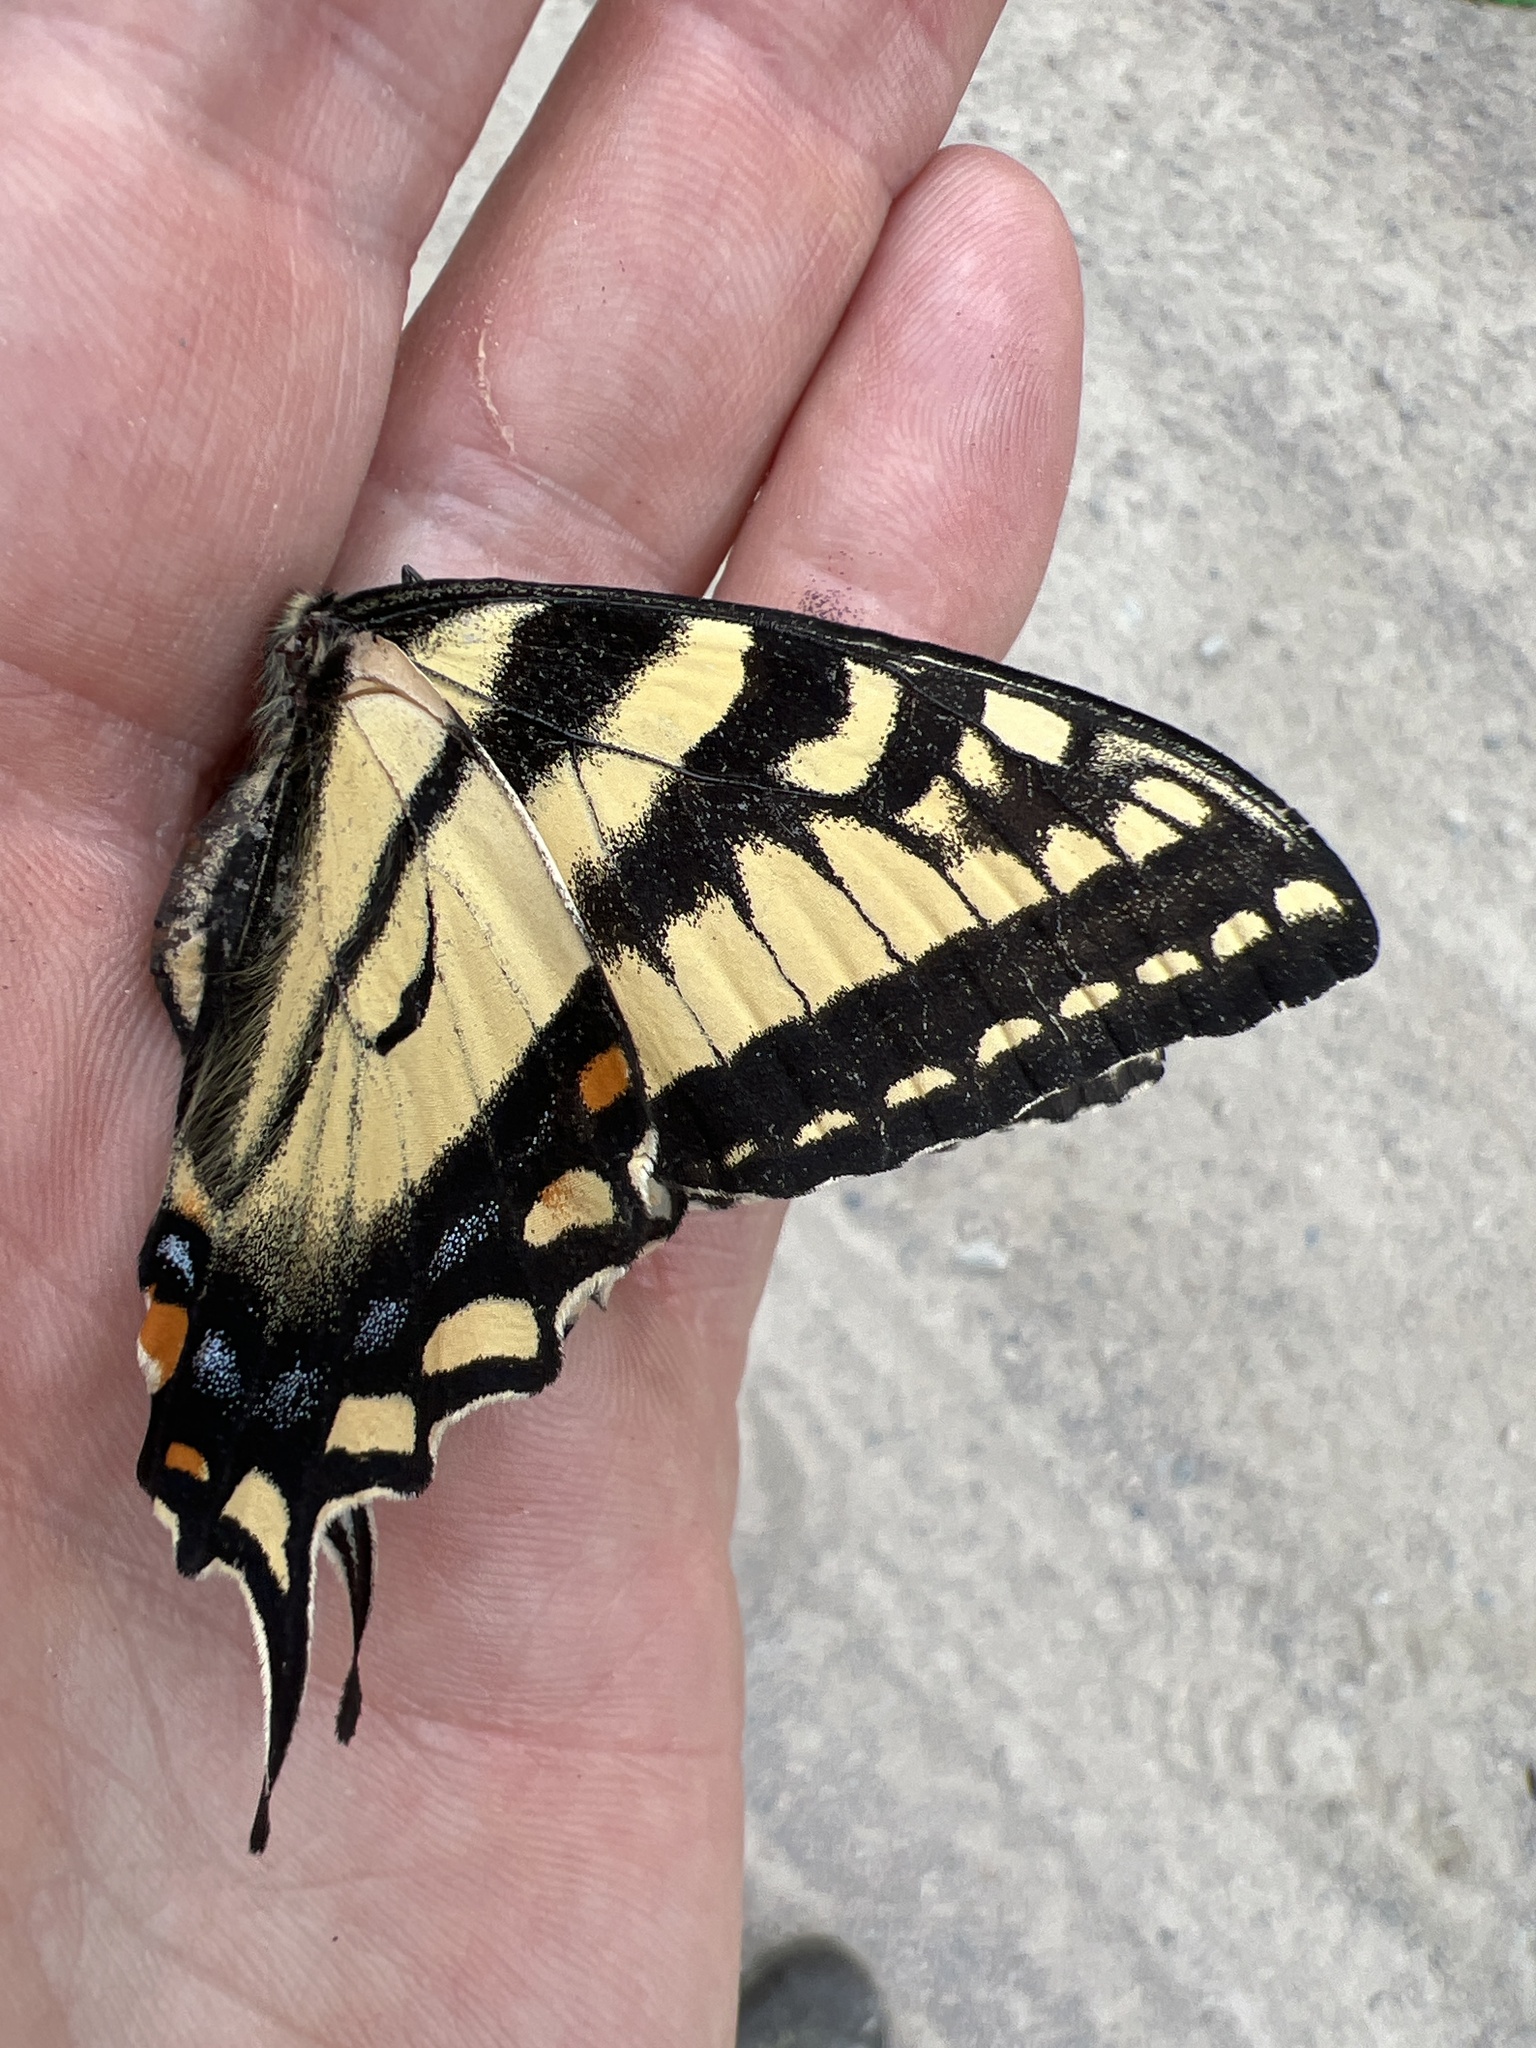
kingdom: Animalia
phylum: Arthropoda
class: Insecta
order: Lepidoptera
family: Papilionidae
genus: Papilio
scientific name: Papilio canadensis
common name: Canadian tiger swallowtail
